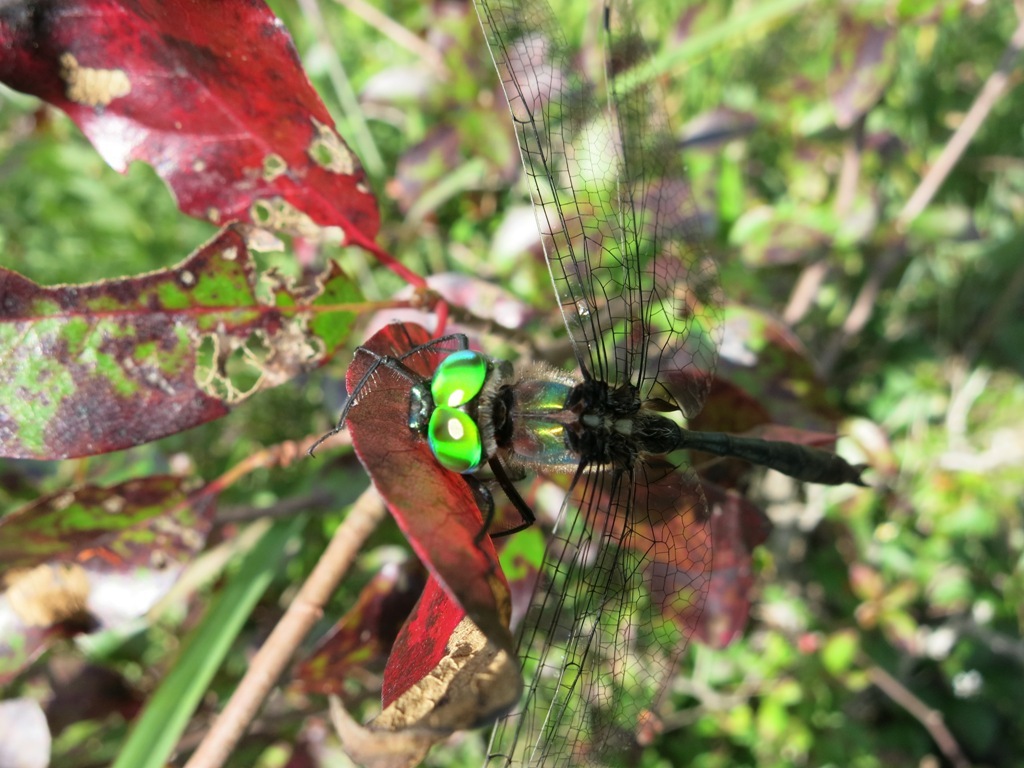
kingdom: Animalia
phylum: Arthropoda
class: Insecta
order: Odonata
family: Corduliidae
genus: Somatochlora
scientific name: Somatochlora tenebrosa
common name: Clamp-tipped emerald
